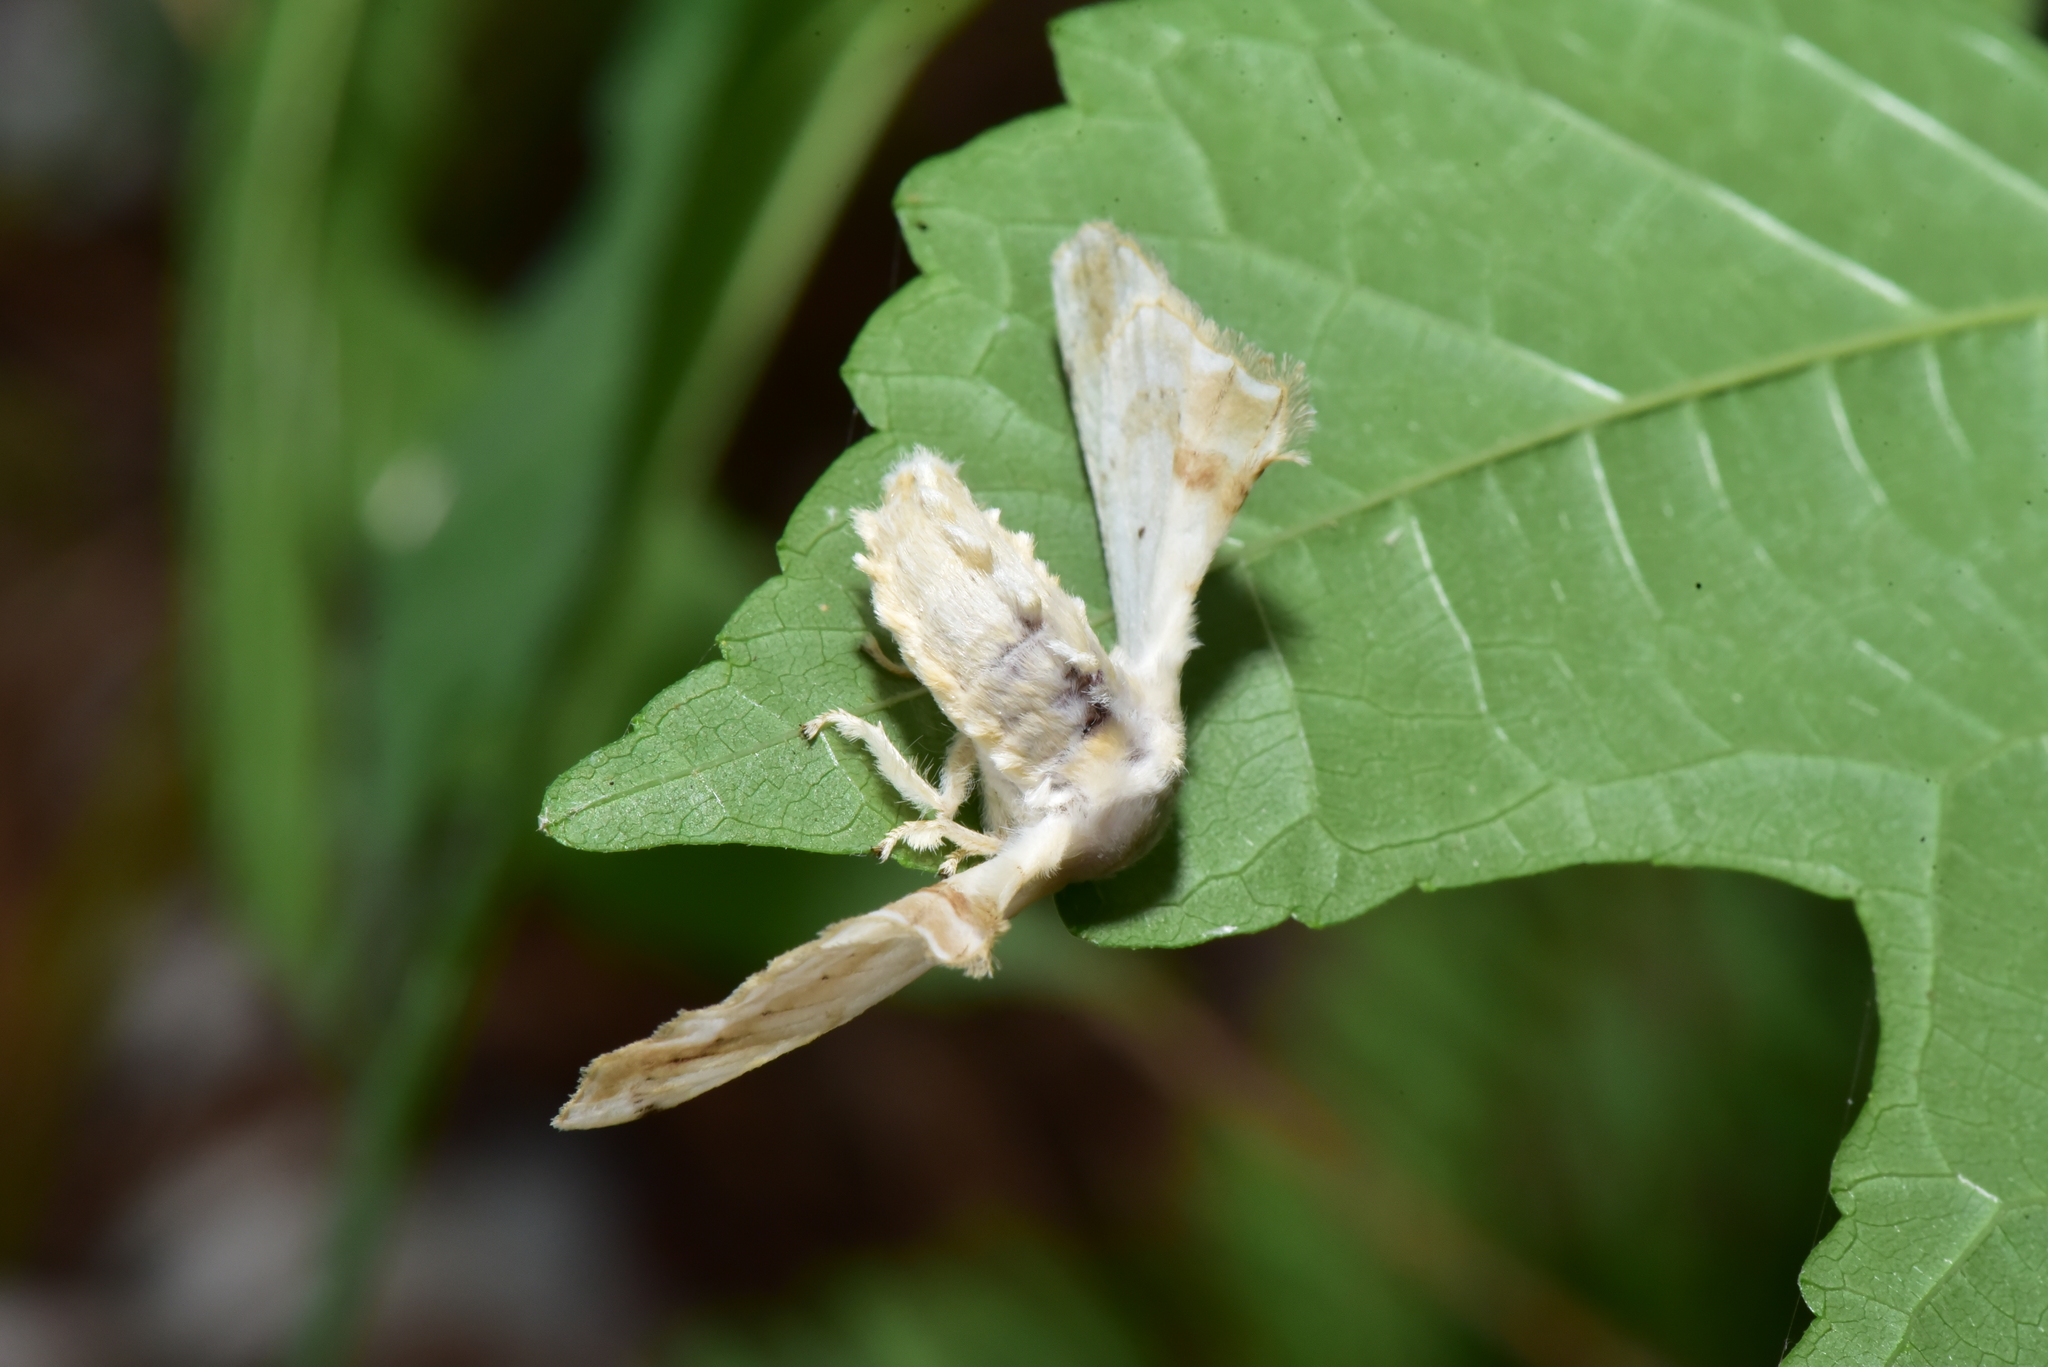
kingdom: Animalia
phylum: Arthropoda
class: Insecta
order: Lepidoptera
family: Bombycidae
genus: Ernolatia
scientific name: Ernolatia moorei
